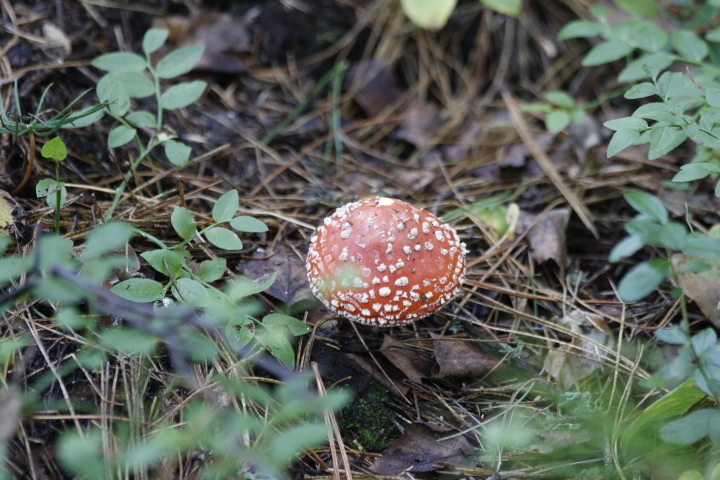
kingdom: Fungi
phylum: Basidiomycota
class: Agaricomycetes
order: Agaricales
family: Amanitaceae
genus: Amanita
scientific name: Amanita muscaria
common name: Fly agaric
